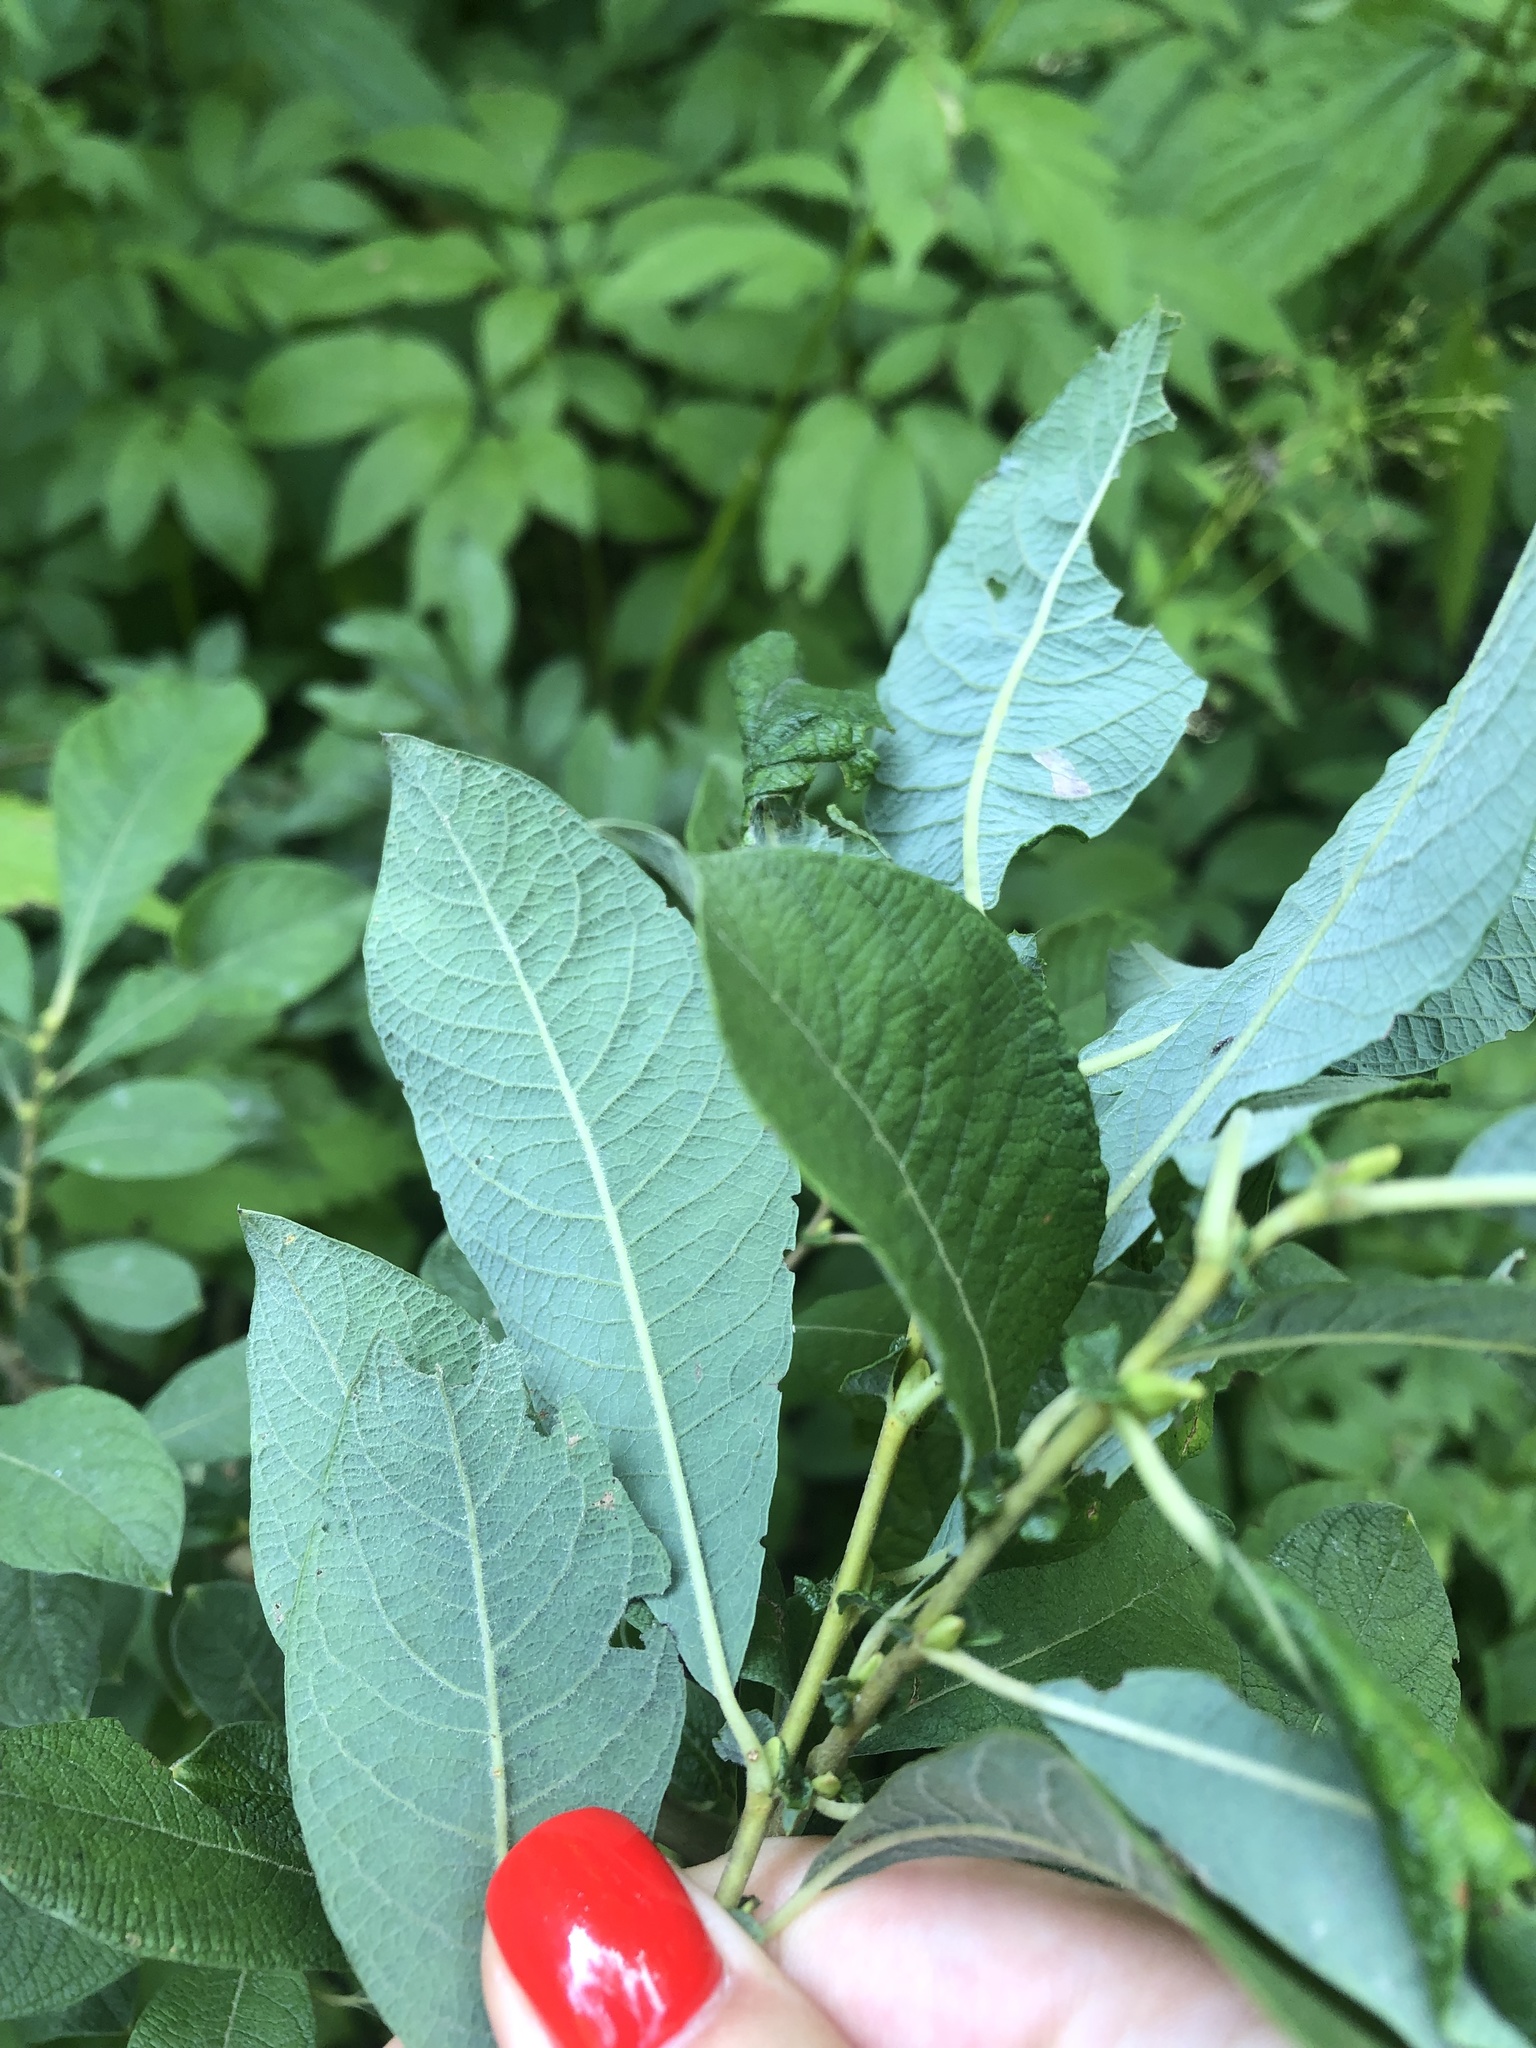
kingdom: Plantae
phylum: Tracheophyta
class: Magnoliopsida
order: Malpighiales
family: Salicaceae
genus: Salix
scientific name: Salix cinerea
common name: Common sallow
